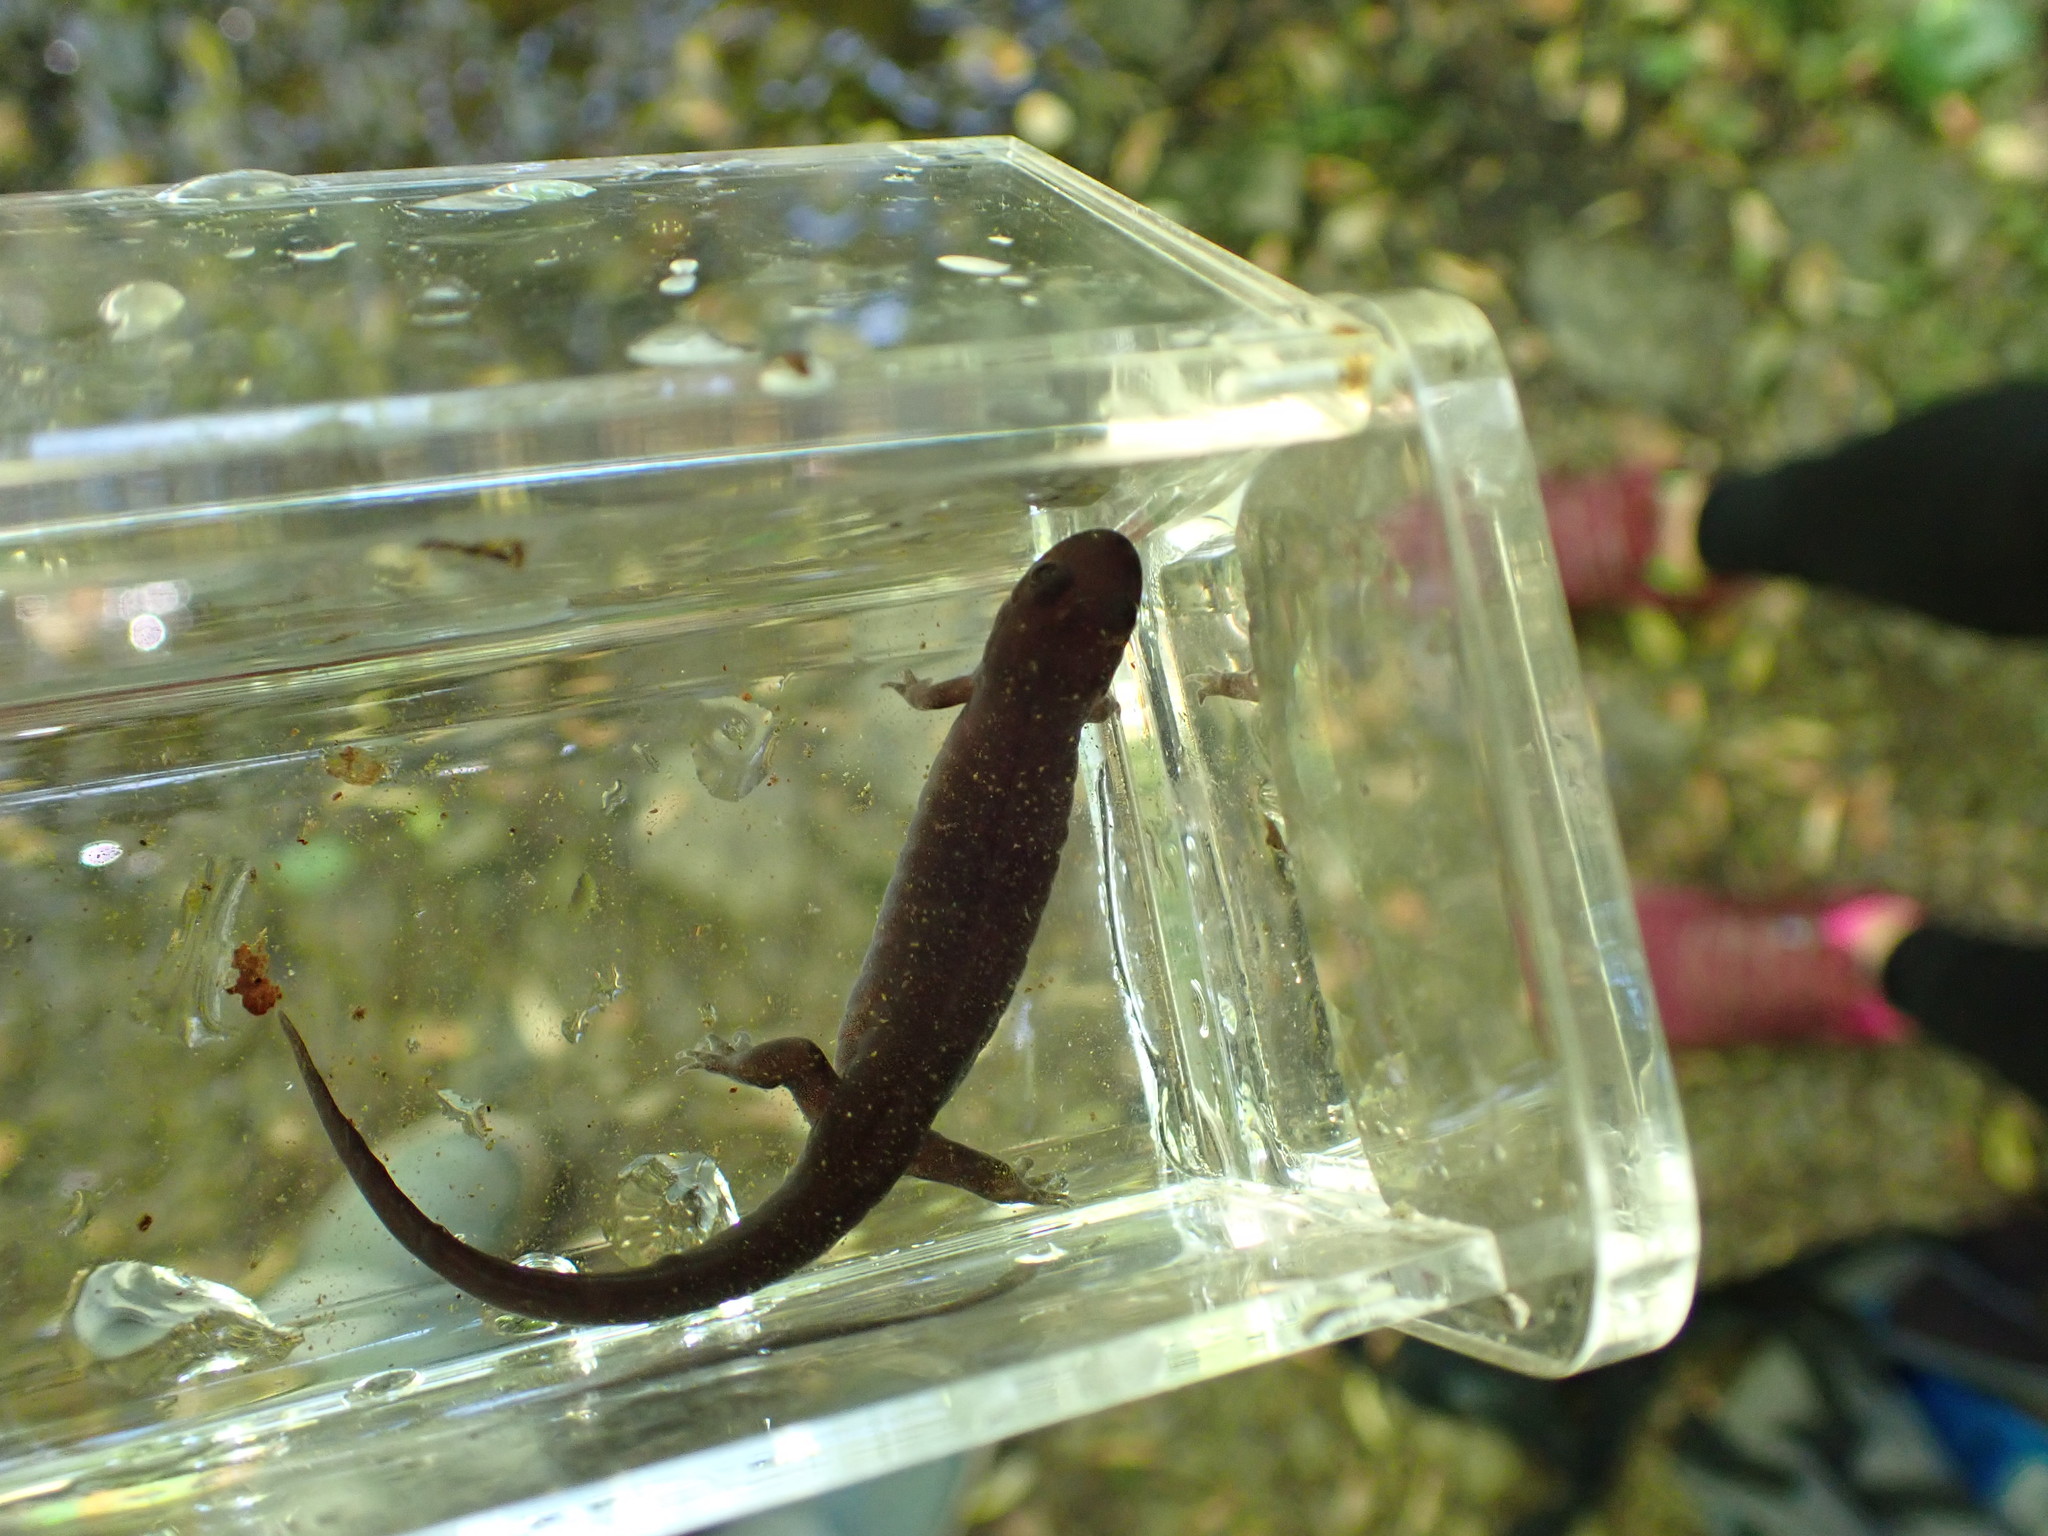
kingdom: Animalia
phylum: Chordata
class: Amphibia
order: Caudata
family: Plethodontidae
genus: Desmognathus
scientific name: Desmognathus monticola
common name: Seal salamander
